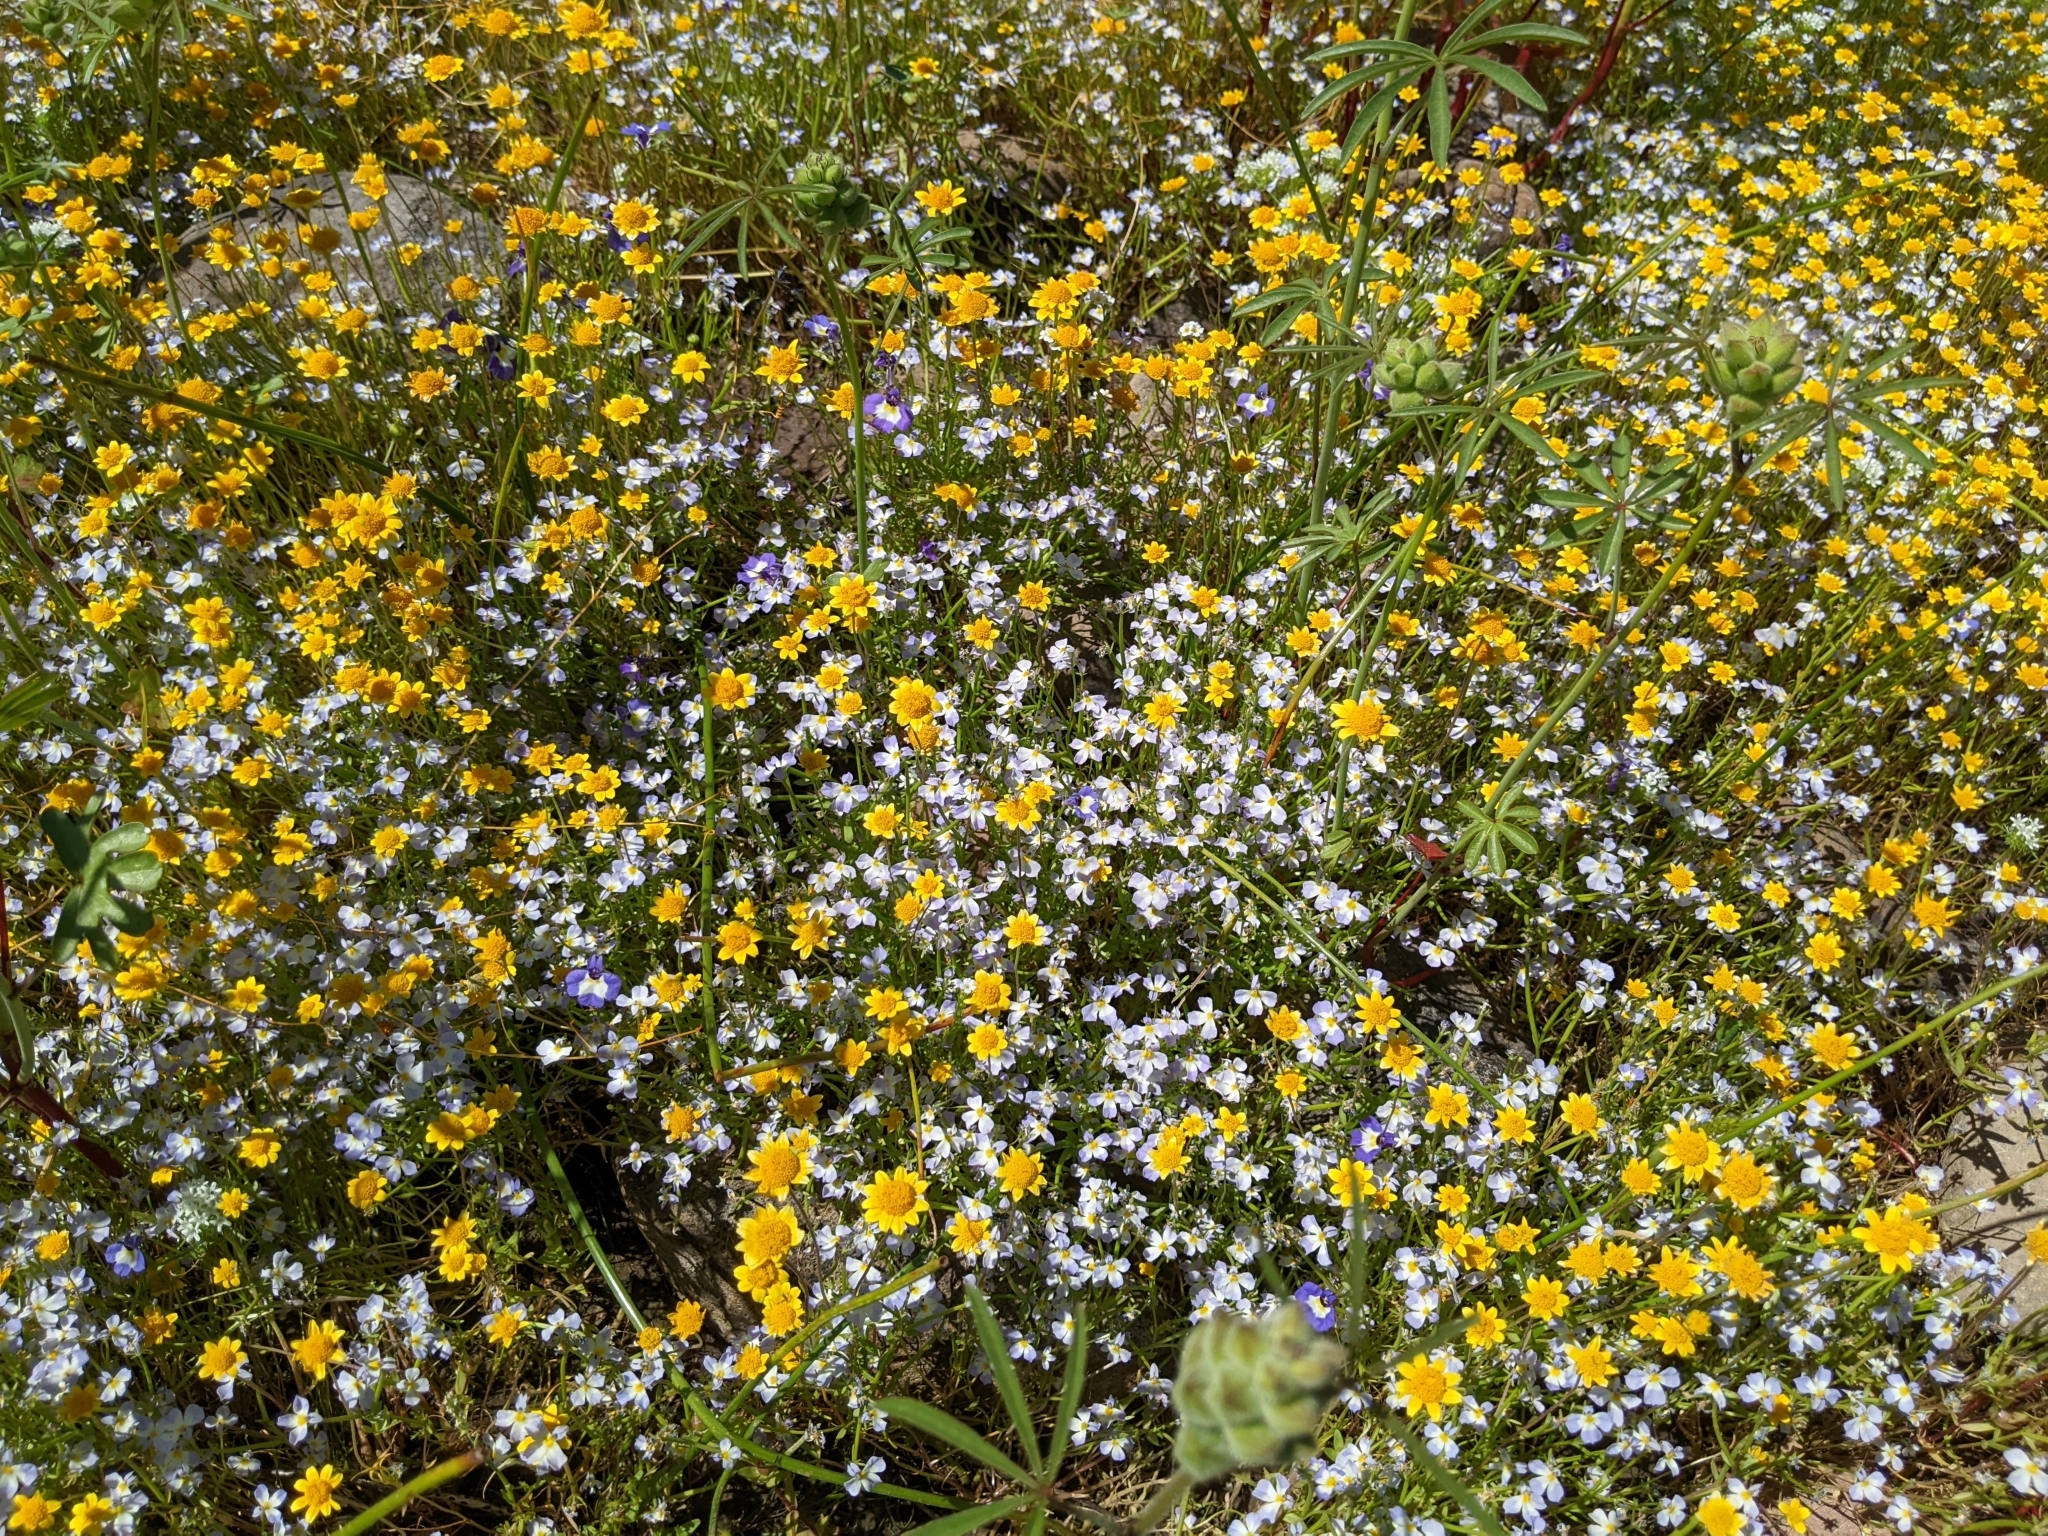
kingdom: Plantae
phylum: Tracheophyta
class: Magnoliopsida
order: Asterales
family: Campanulaceae
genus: Downingia
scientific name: Downingia cuspidata
